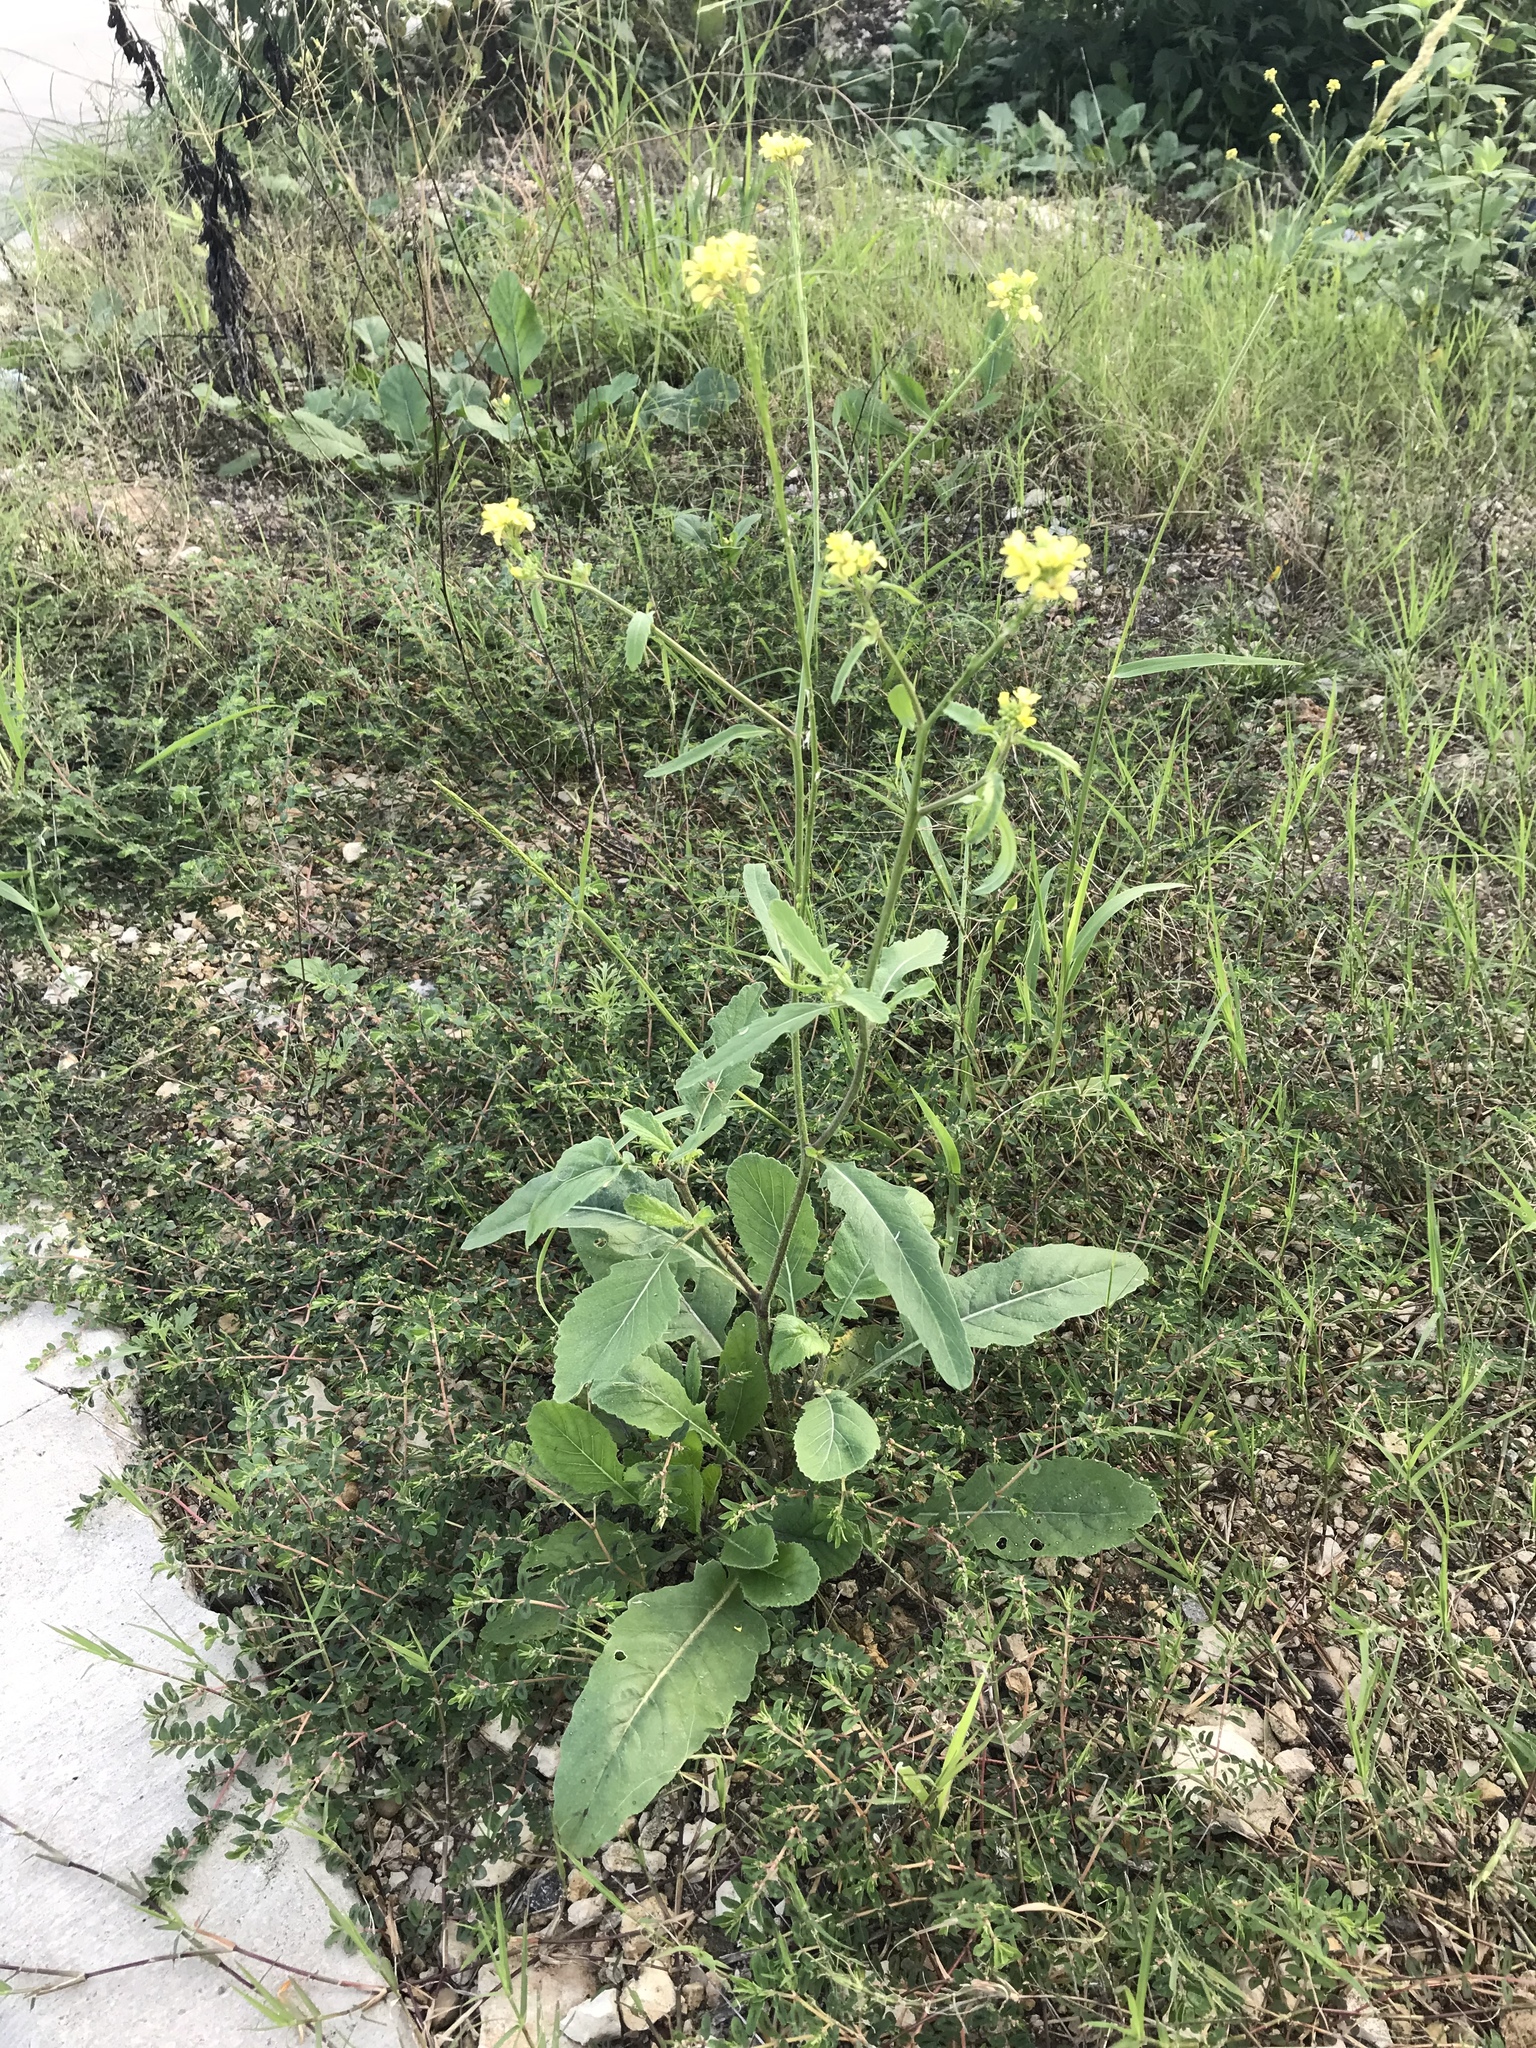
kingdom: Plantae
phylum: Tracheophyta
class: Magnoliopsida
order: Brassicales
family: Brassicaceae
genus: Rapistrum
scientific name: Rapistrum rugosum
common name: Annual bastardcabbage
